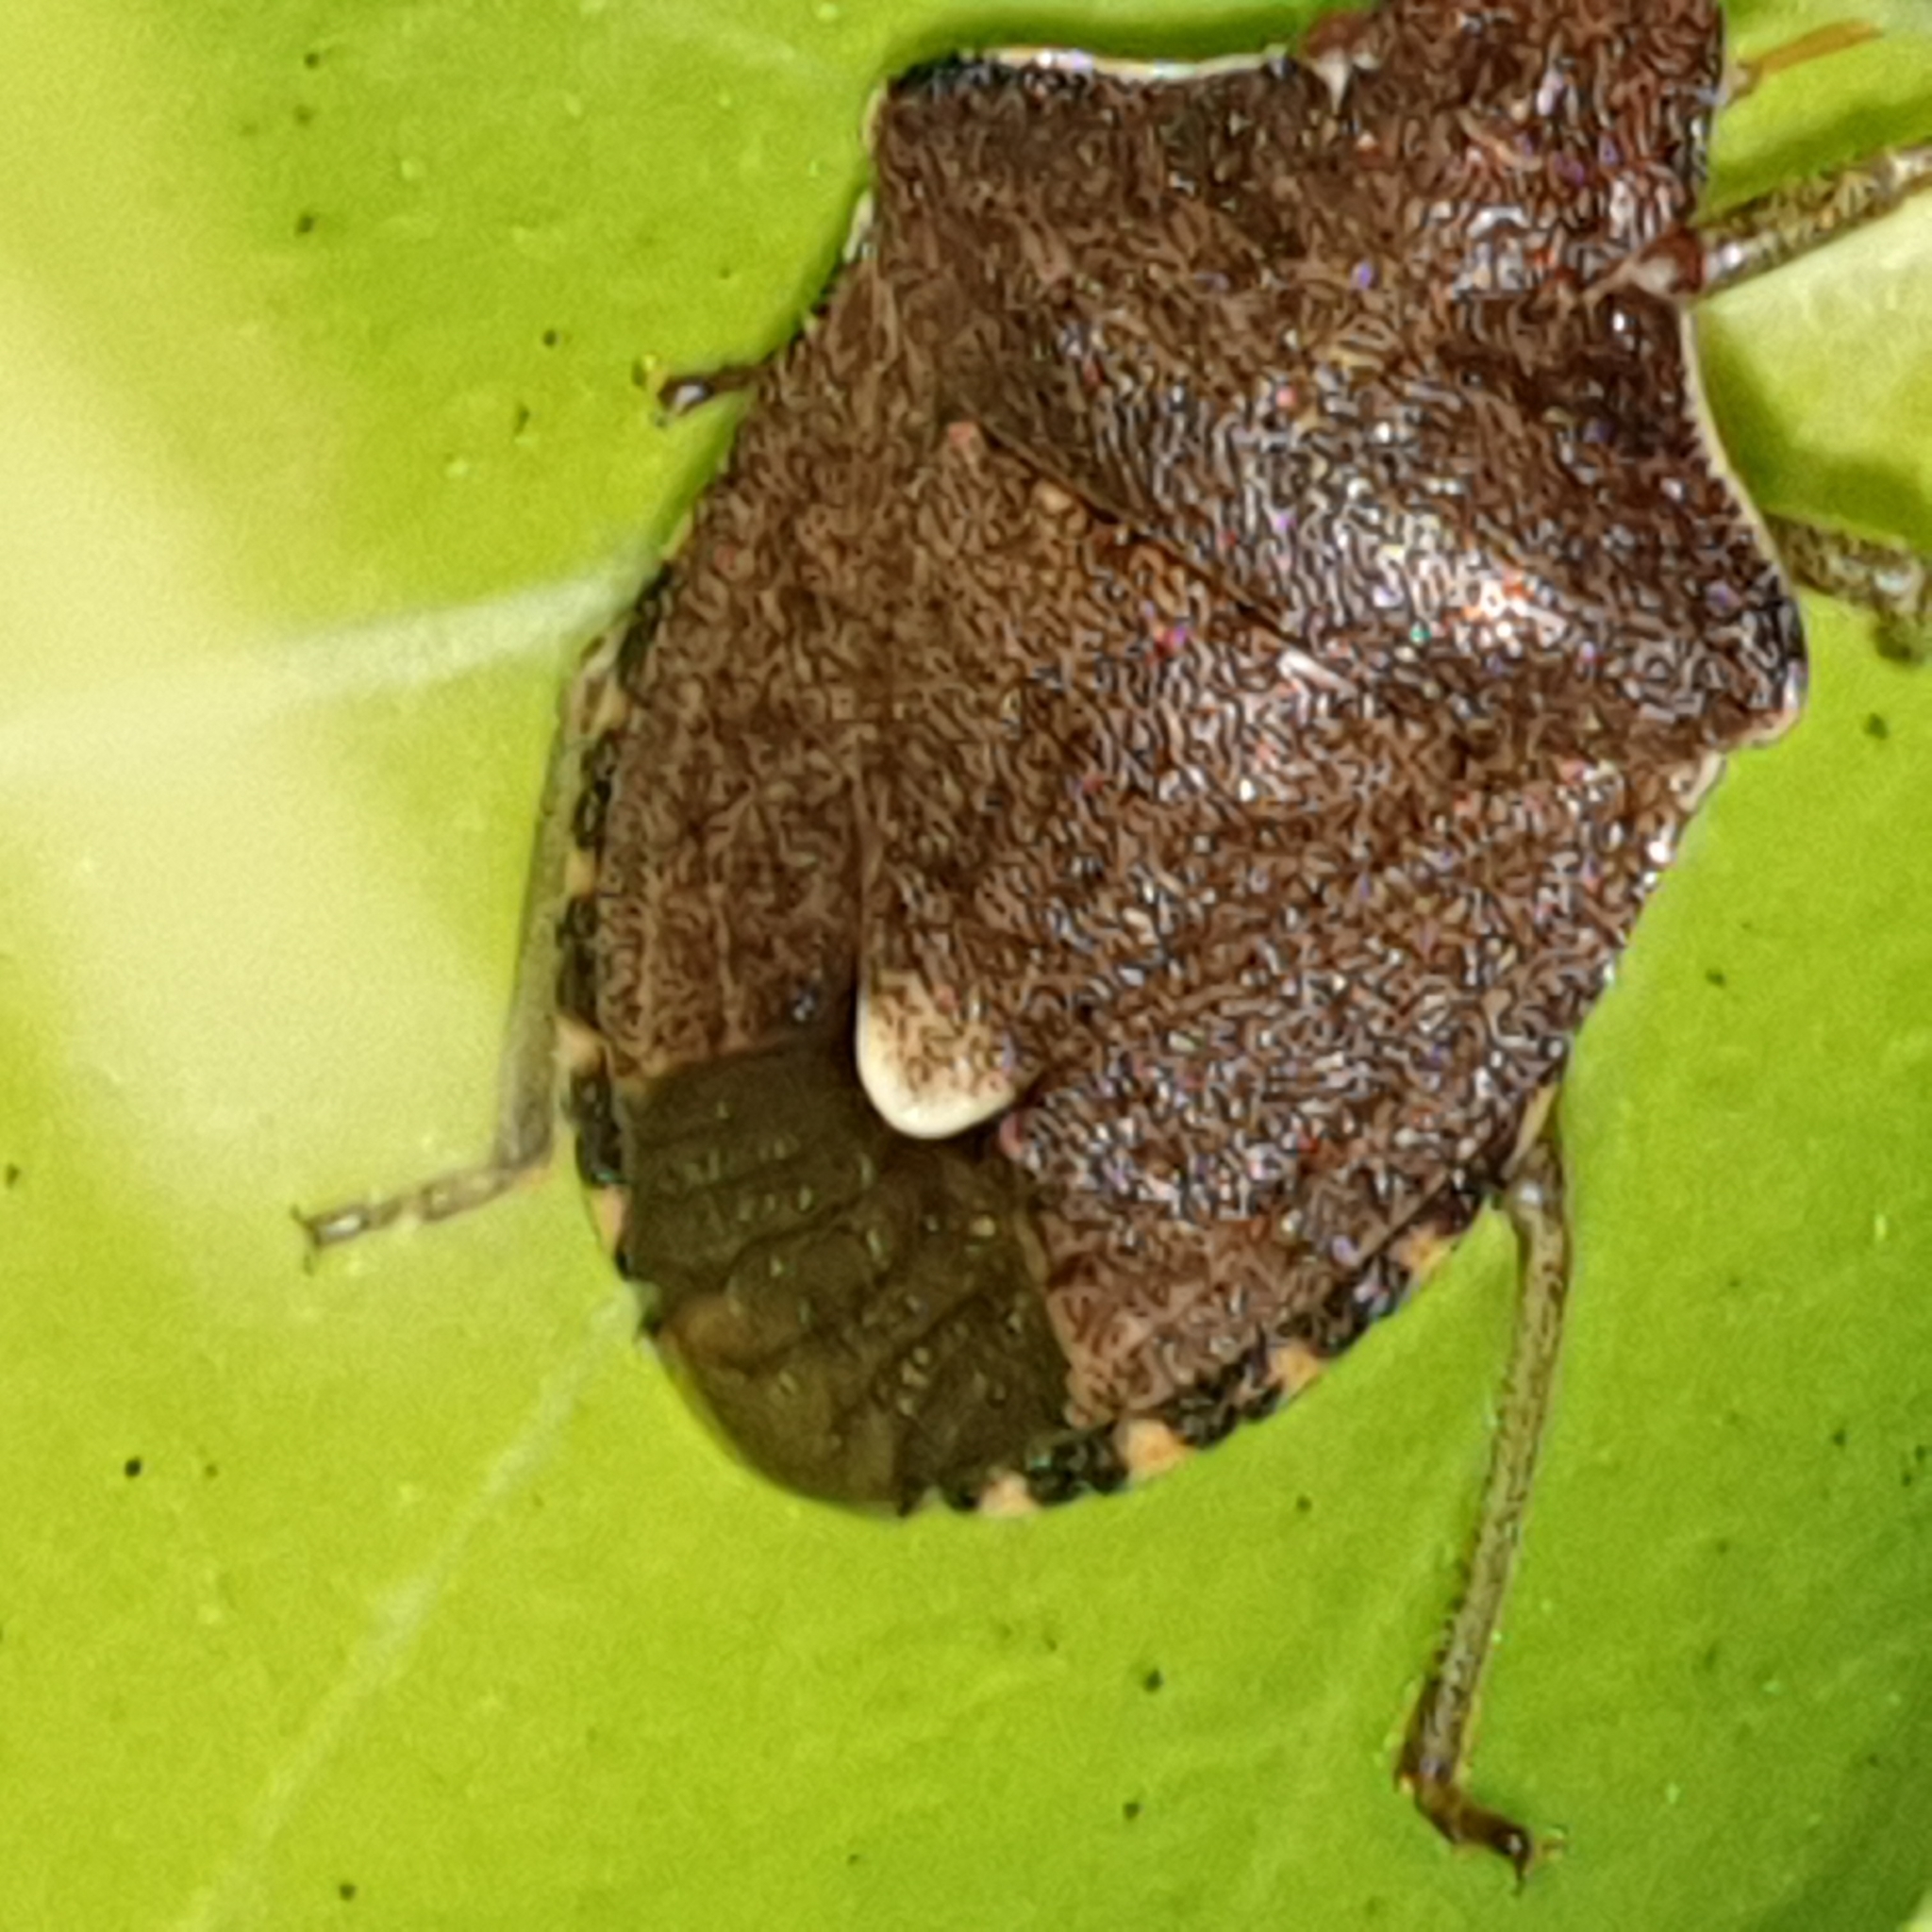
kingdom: Animalia
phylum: Arthropoda
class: Insecta
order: Hemiptera
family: Pentatomidae
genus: Holcostethus
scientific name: Holcostethus strictus
